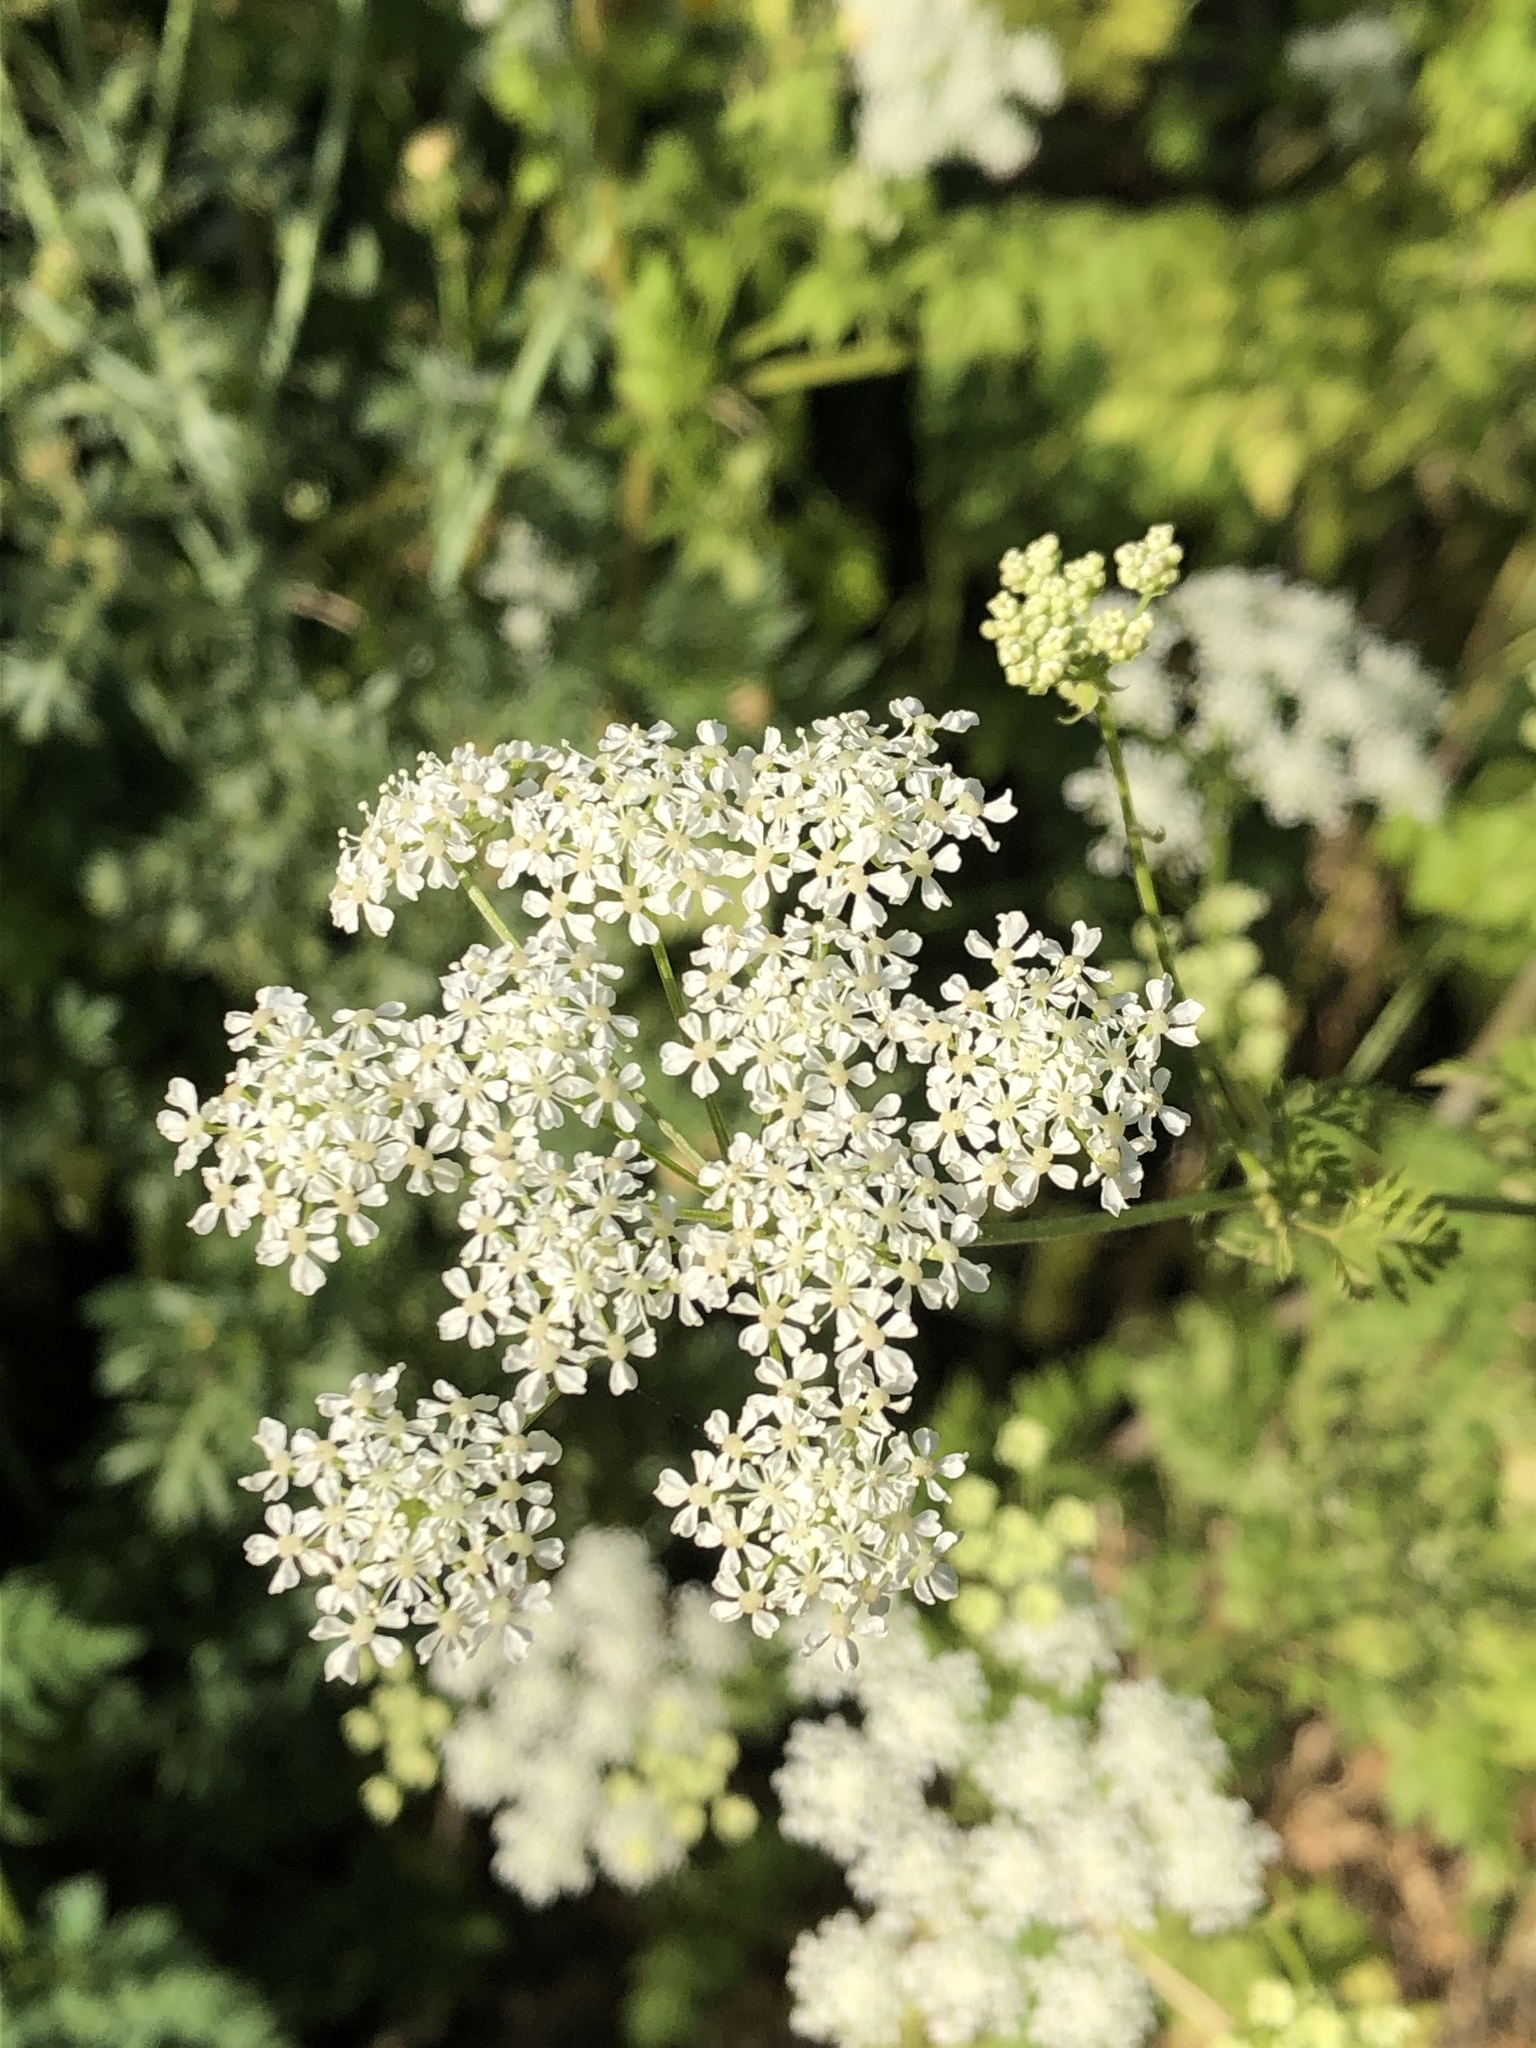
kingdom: Plantae
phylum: Tracheophyta
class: Magnoliopsida
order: Apiales
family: Apiaceae
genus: Conium
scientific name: Conium maculatum
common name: Hemlock
